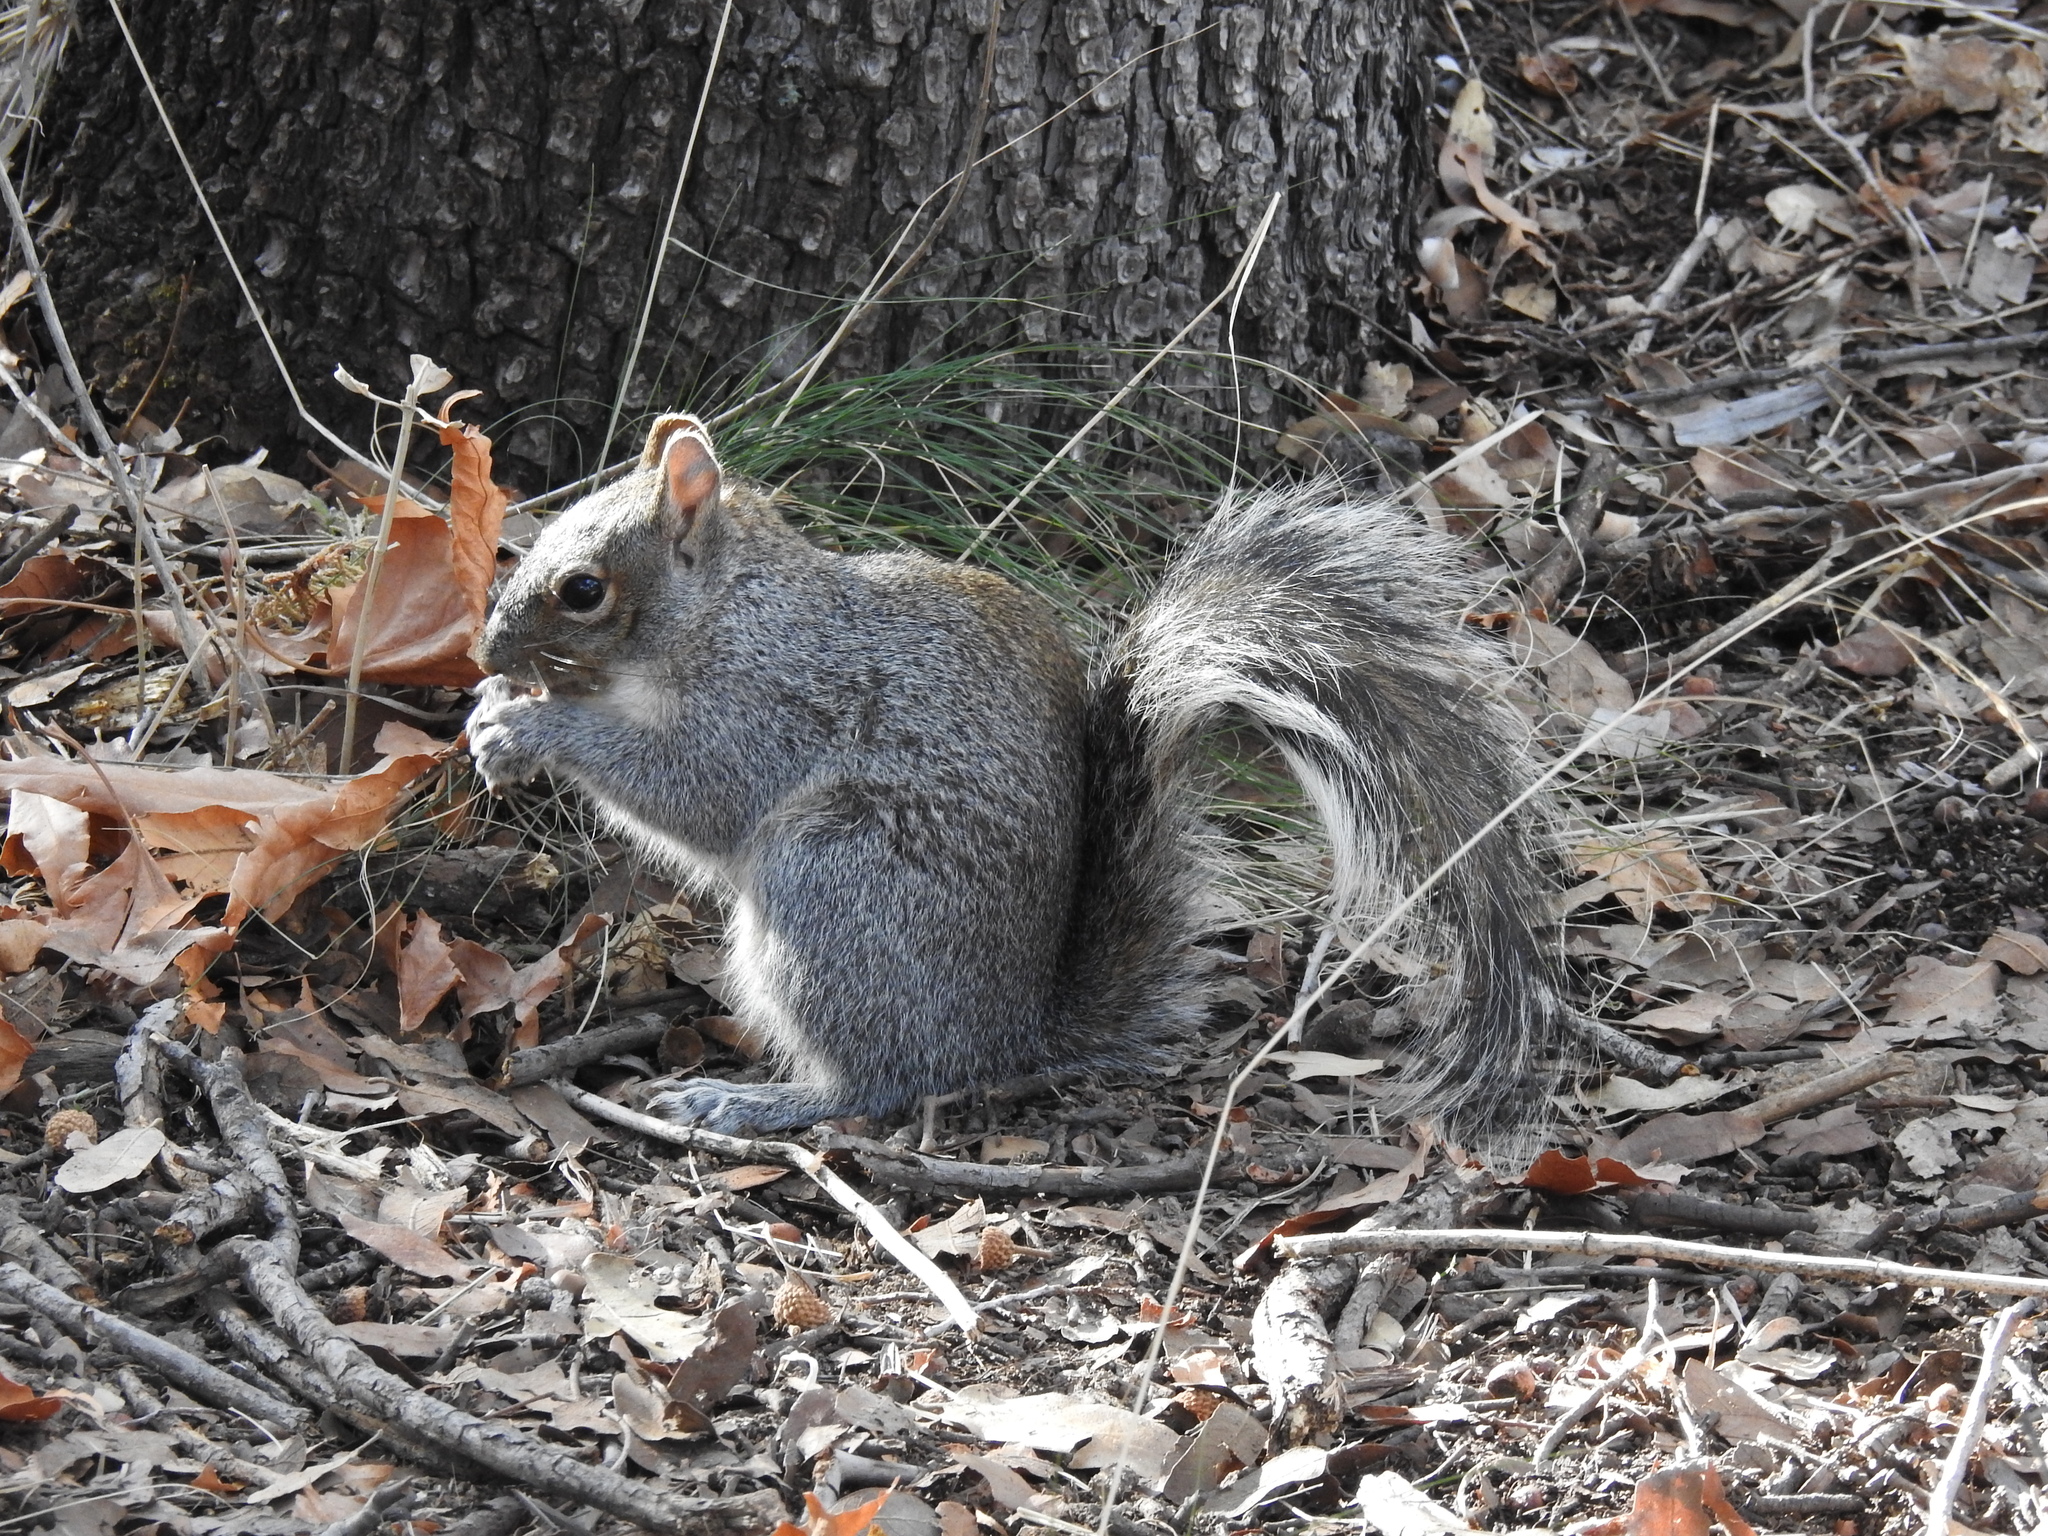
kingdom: Animalia
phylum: Chordata
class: Mammalia
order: Rodentia
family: Sciuridae
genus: Sciurus
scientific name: Sciurus arizonensis
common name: Arizona gray squirrel
